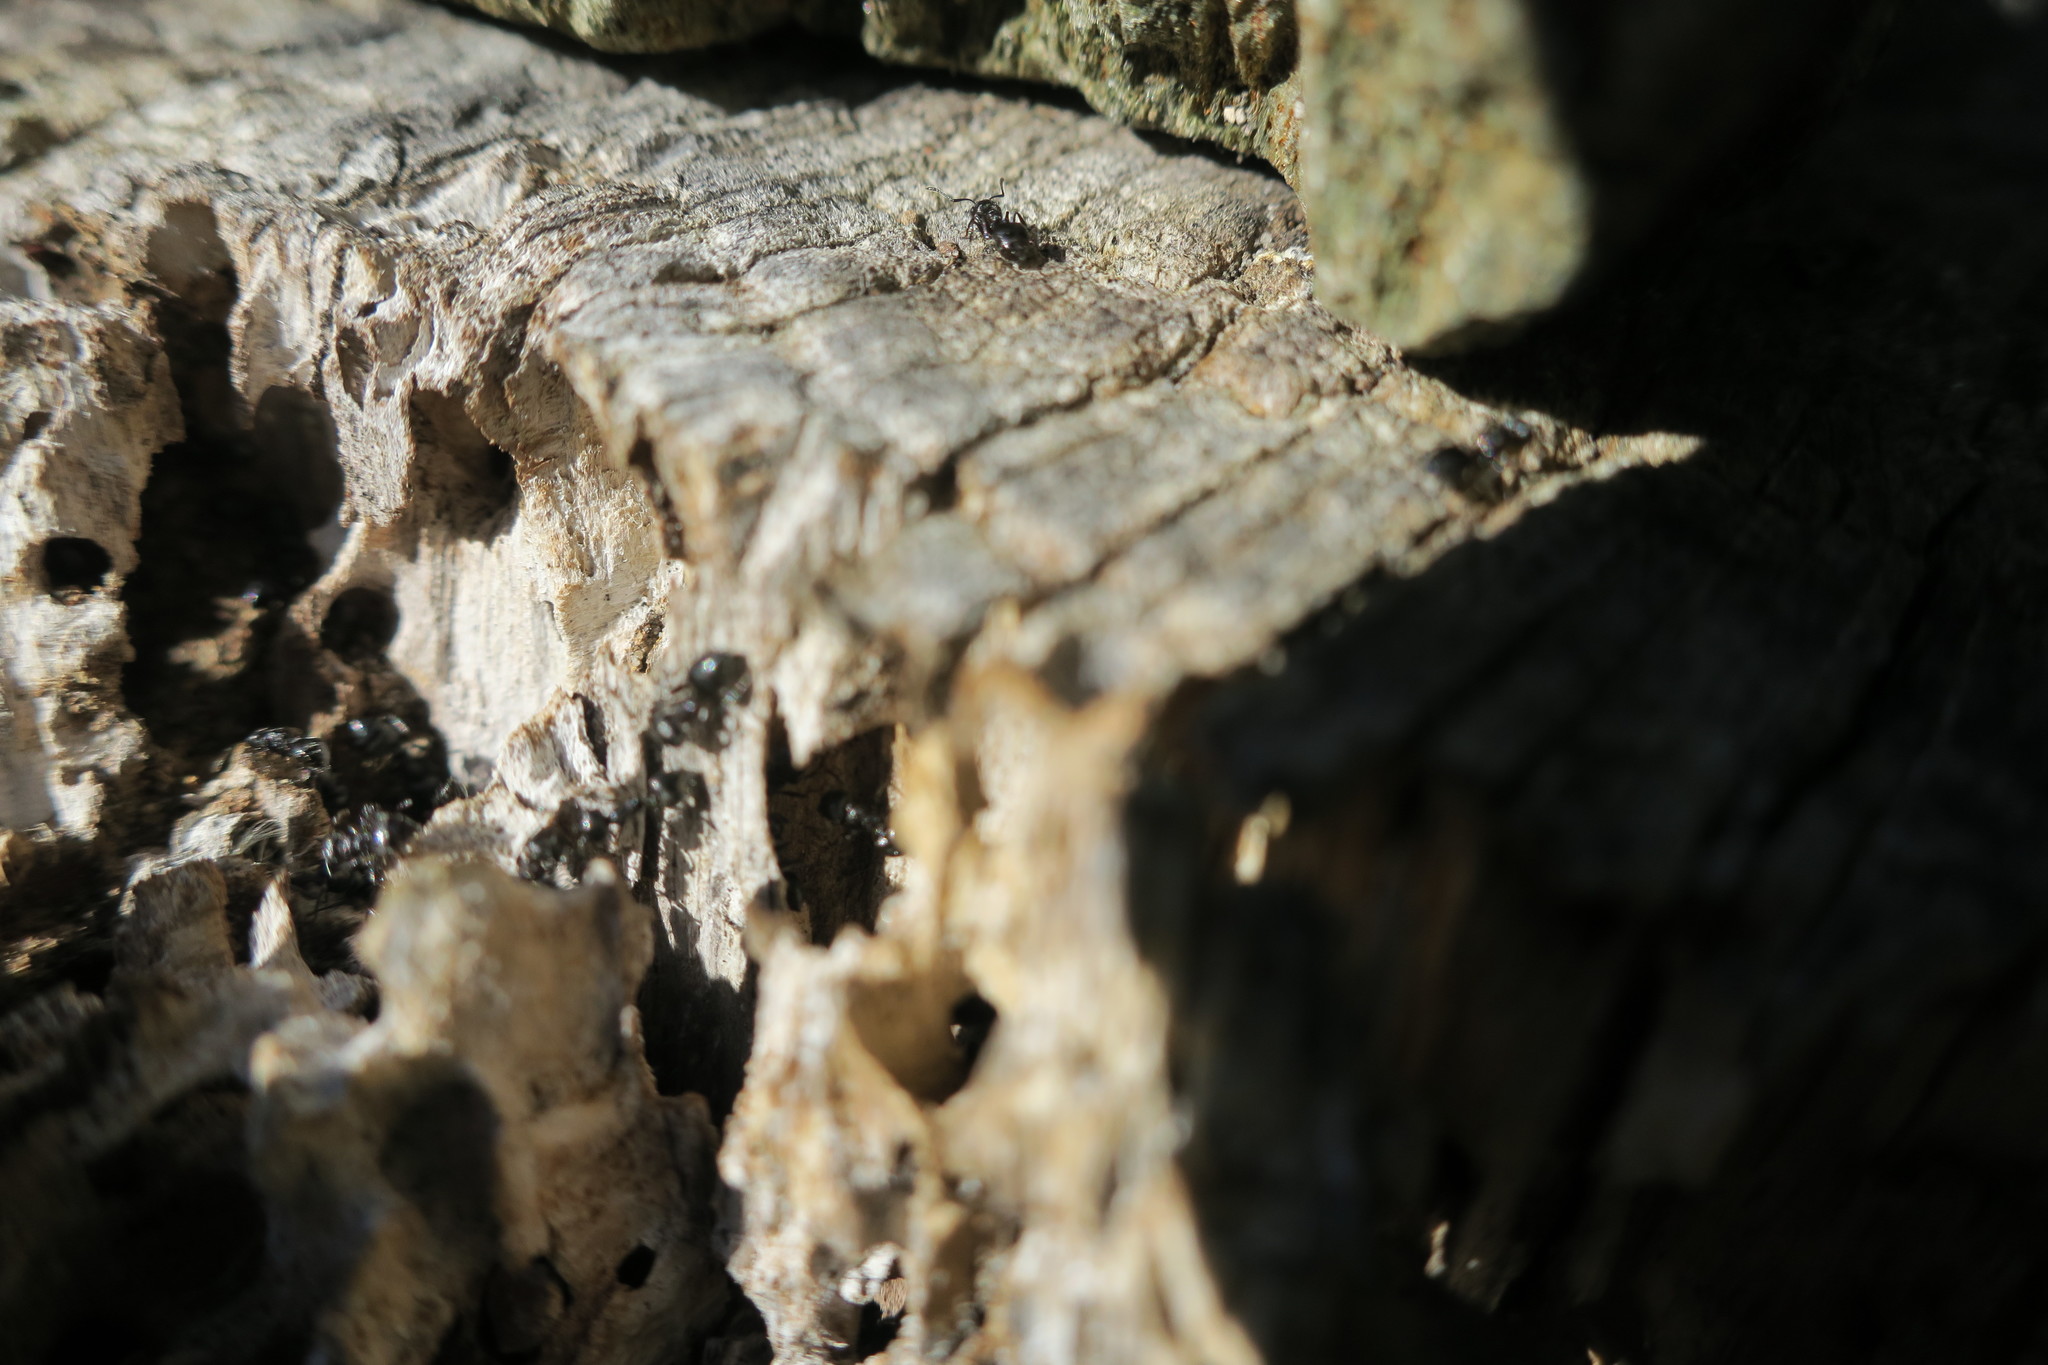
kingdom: Animalia
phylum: Arthropoda
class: Insecta
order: Hymenoptera
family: Formicidae
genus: Crematogaster
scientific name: Crematogaster peringueyi
